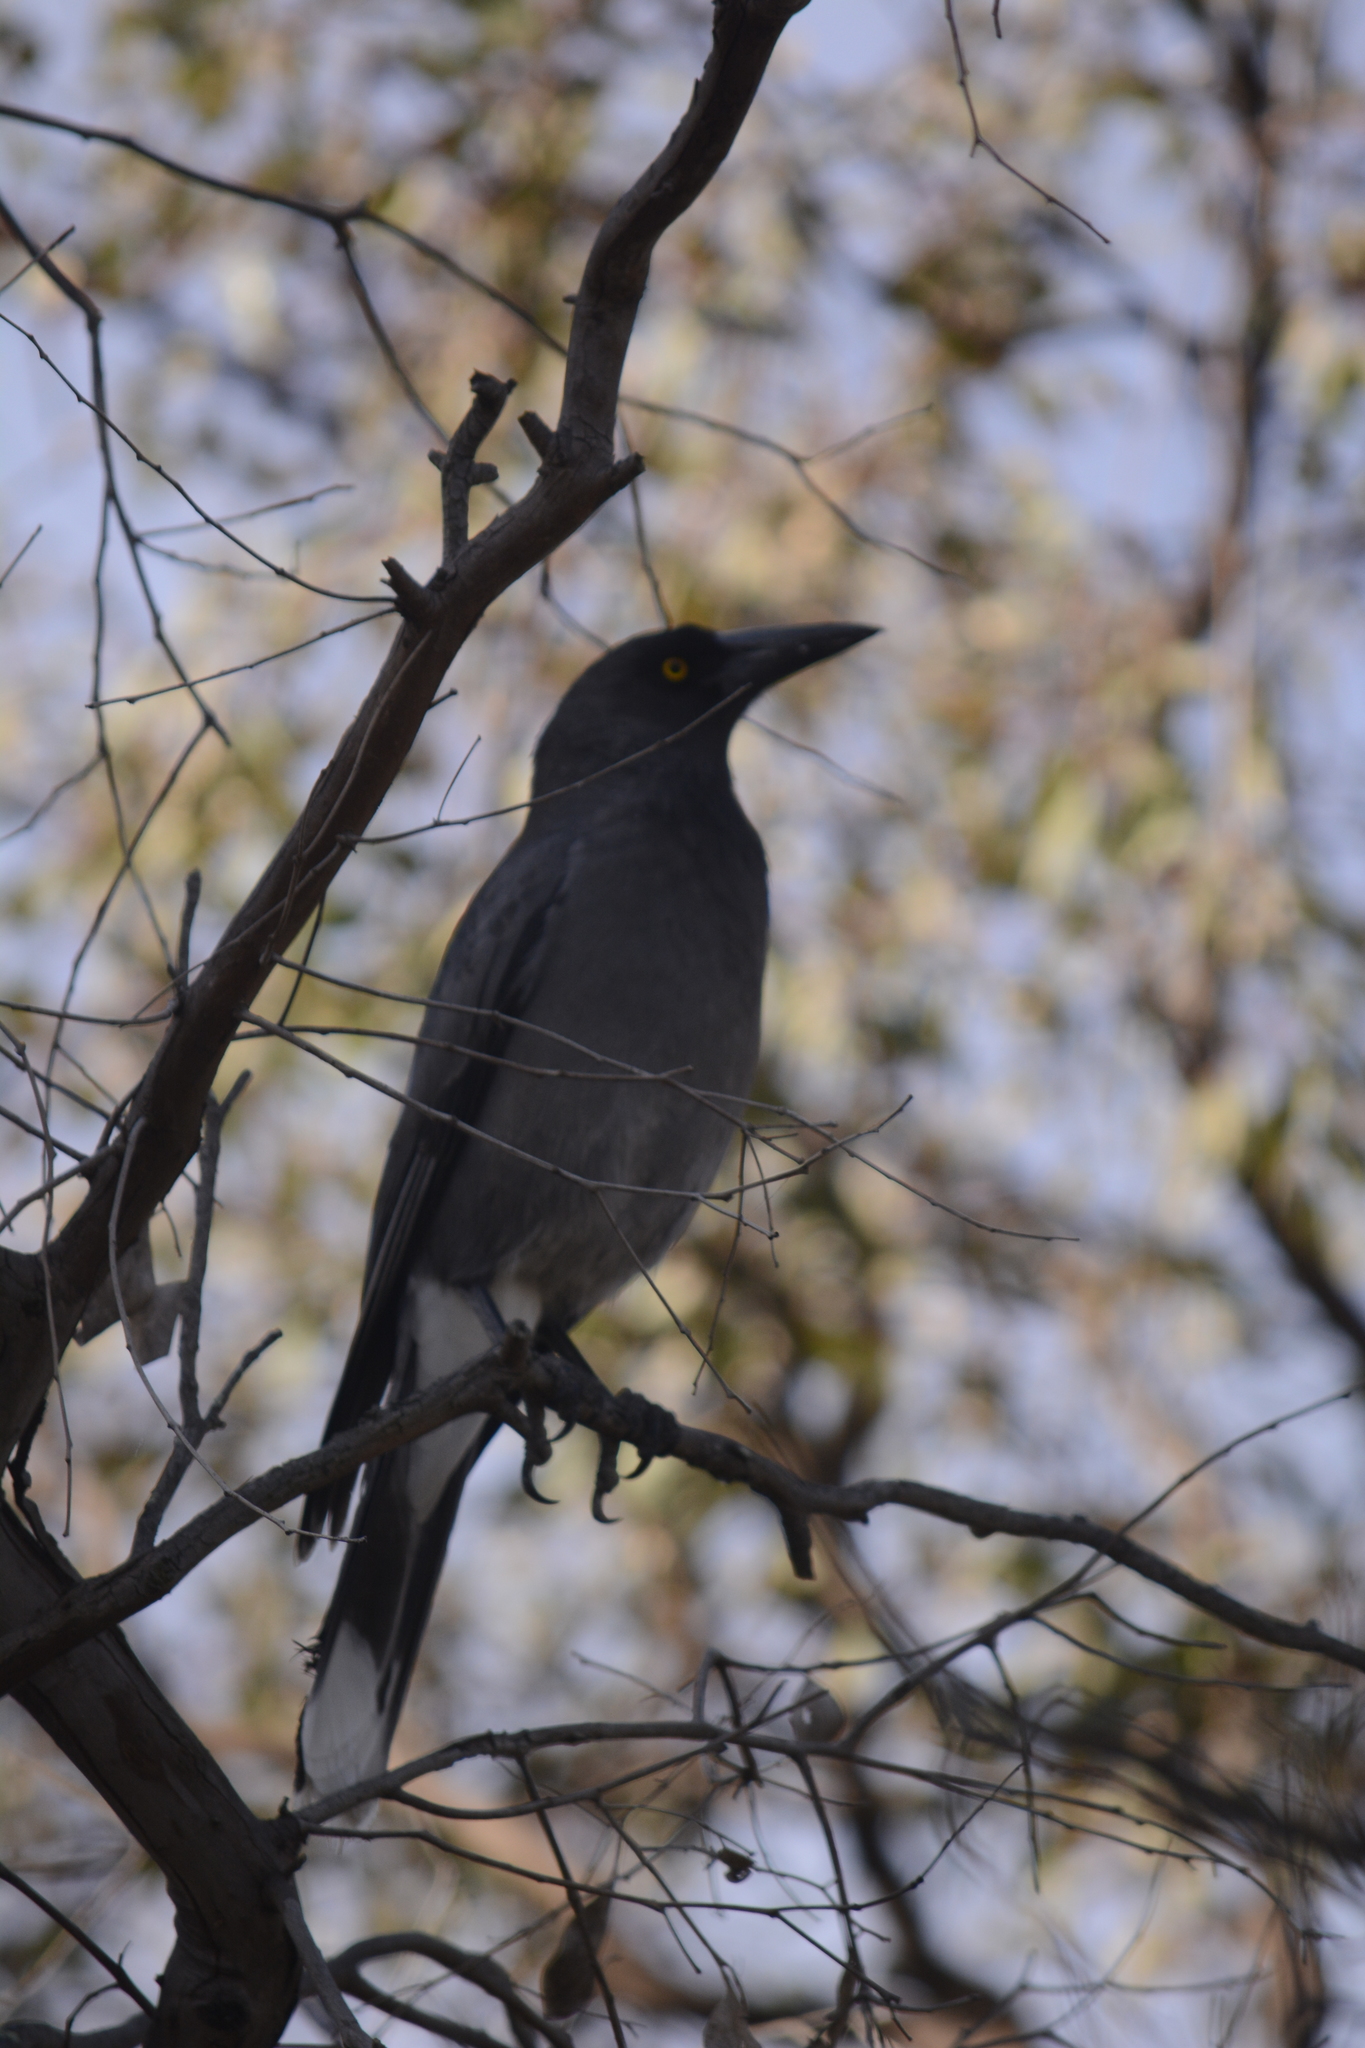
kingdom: Animalia
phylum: Chordata
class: Aves
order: Passeriformes
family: Cracticidae
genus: Strepera
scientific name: Strepera versicolor
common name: Grey currawong
